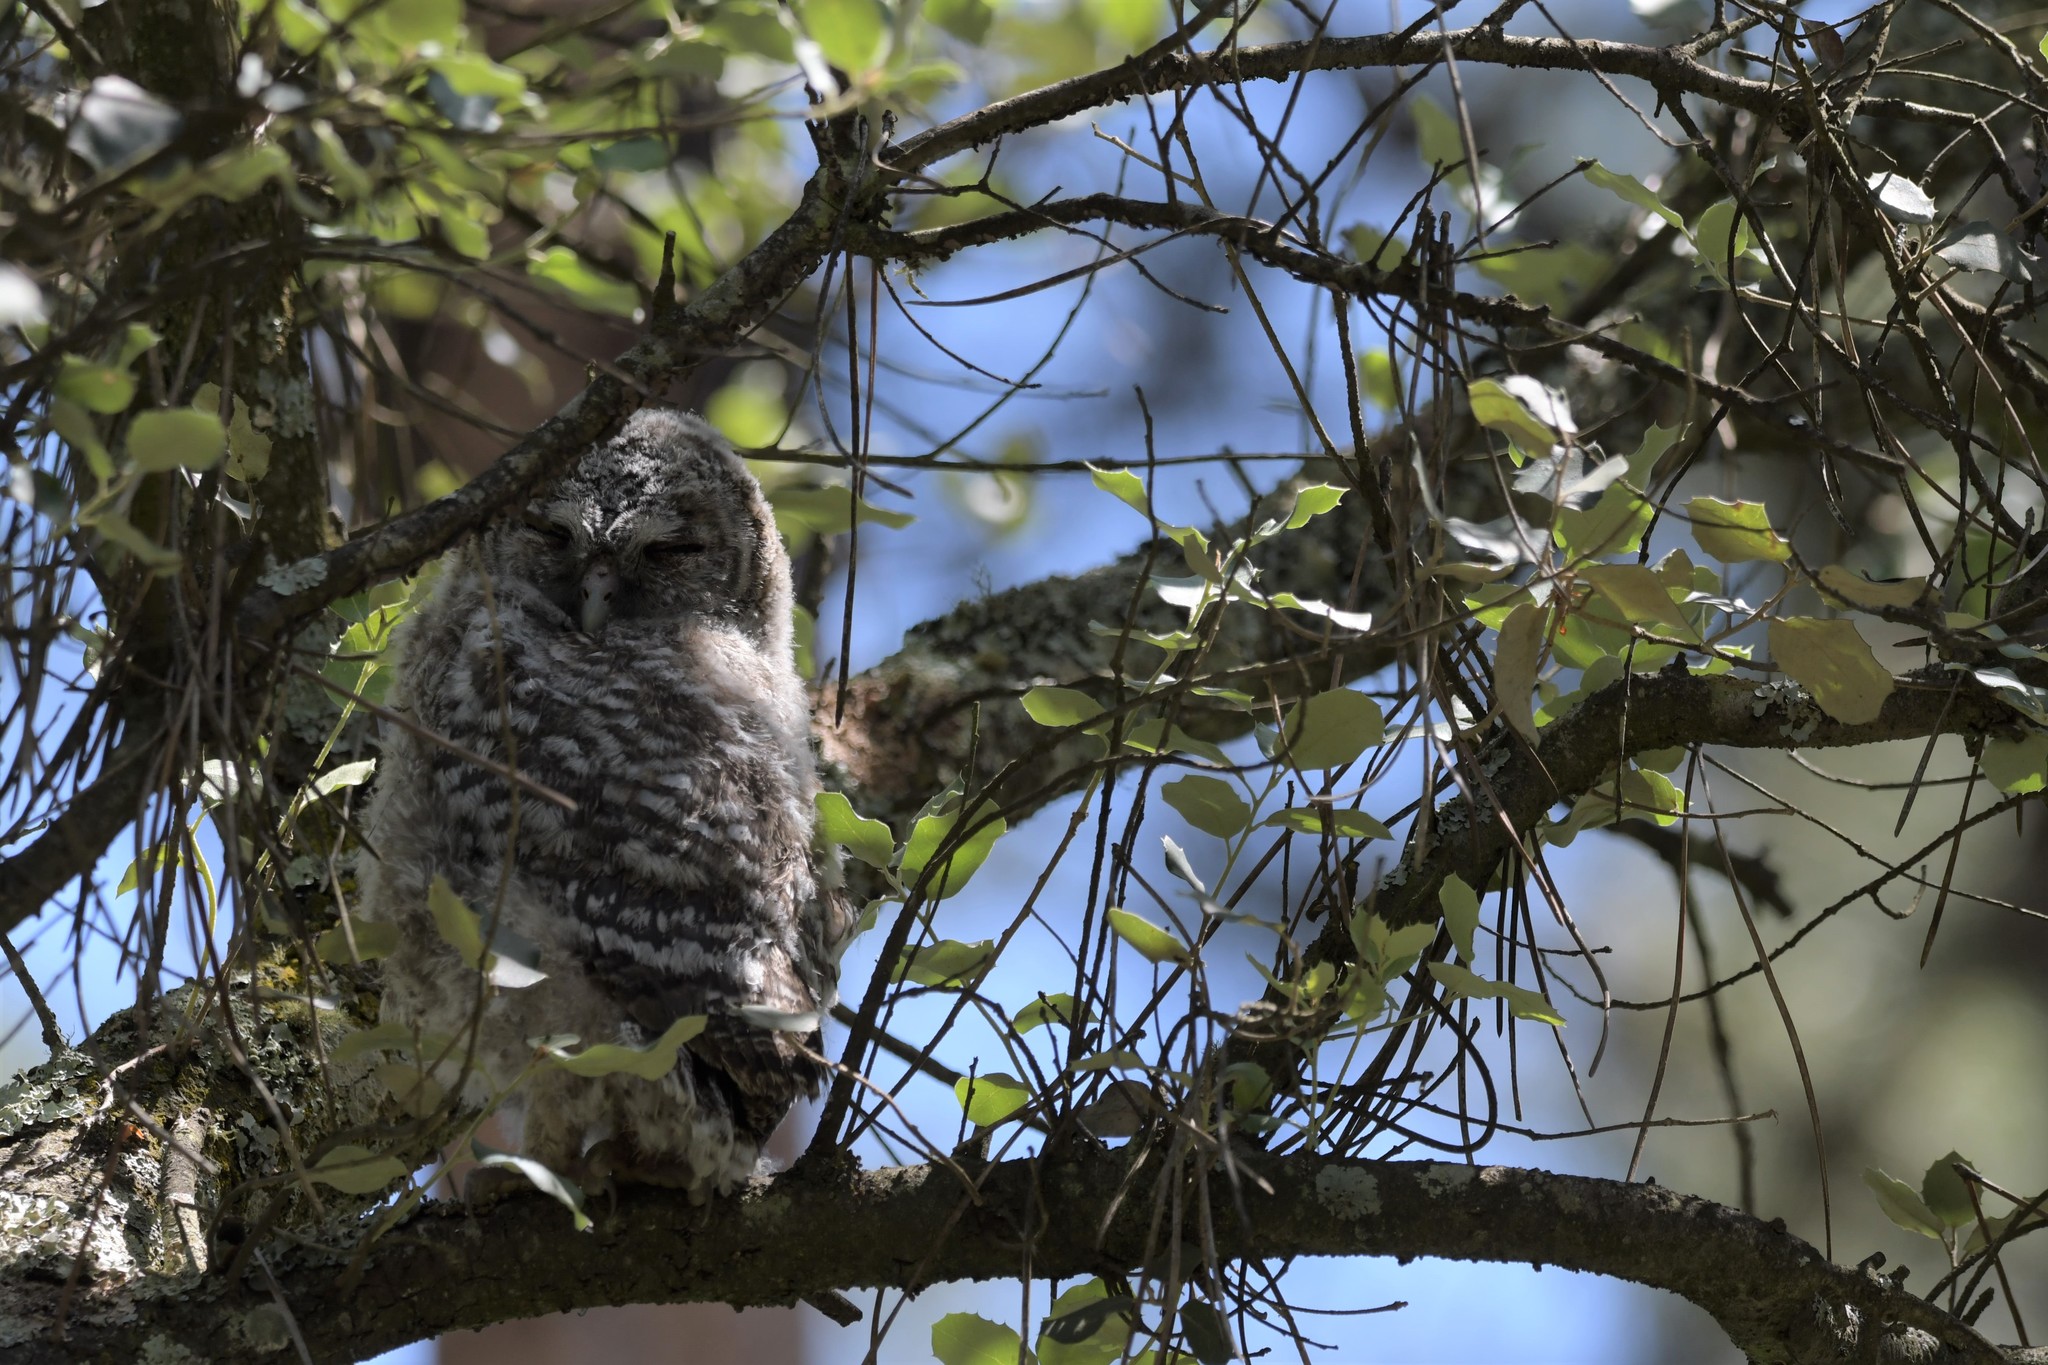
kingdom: Animalia
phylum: Chordata
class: Aves
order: Strigiformes
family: Strigidae
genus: Strix
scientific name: Strix aluco
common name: Tawny owl
